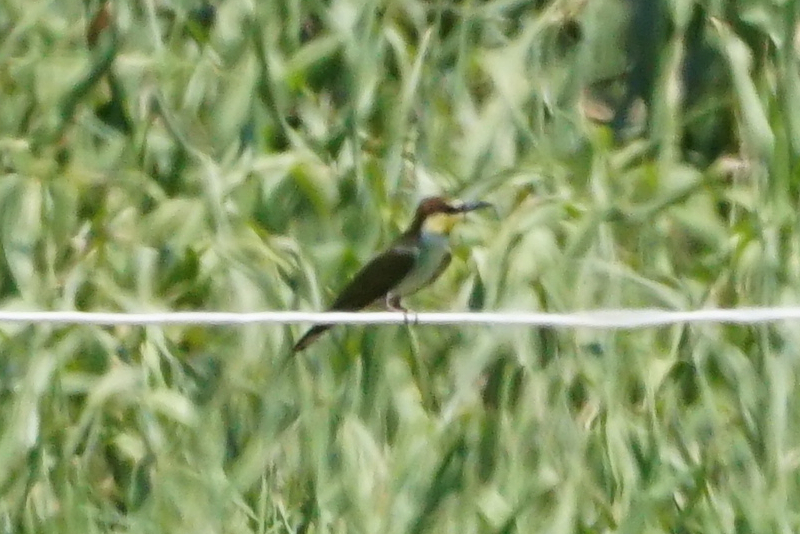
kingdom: Animalia
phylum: Chordata
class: Aves
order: Coraciiformes
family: Meropidae
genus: Merops
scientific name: Merops apiaster
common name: European bee-eater
